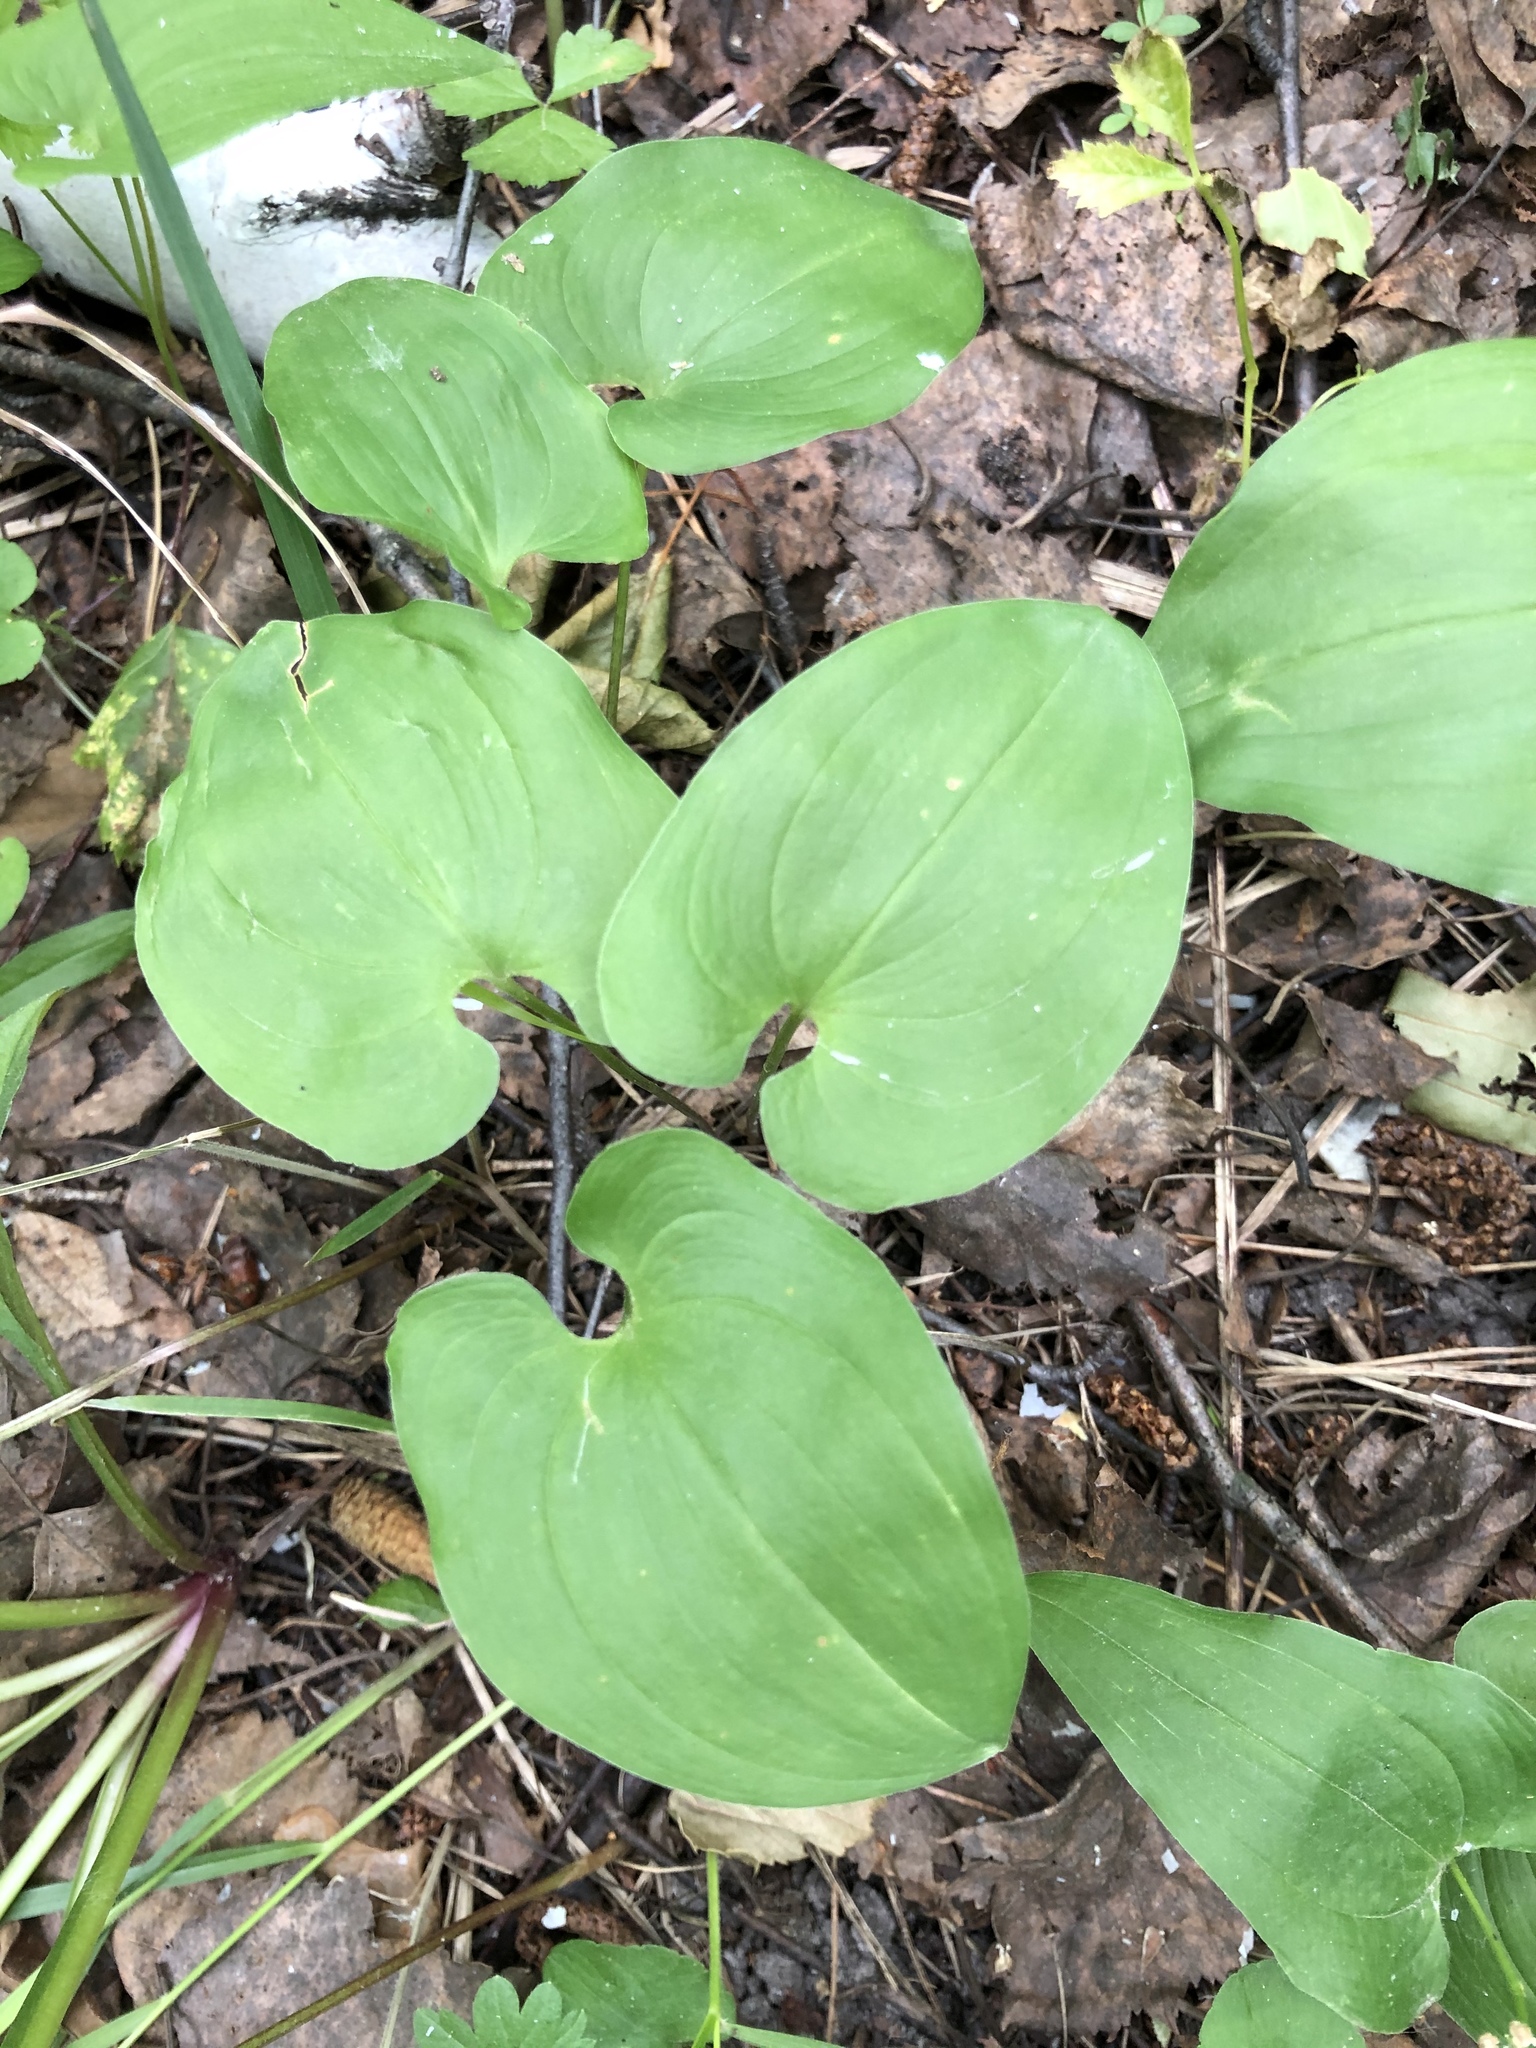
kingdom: Plantae
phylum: Tracheophyta
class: Liliopsida
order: Asparagales
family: Asparagaceae
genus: Maianthemum
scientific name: Maianthemum bifolium
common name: May lily
